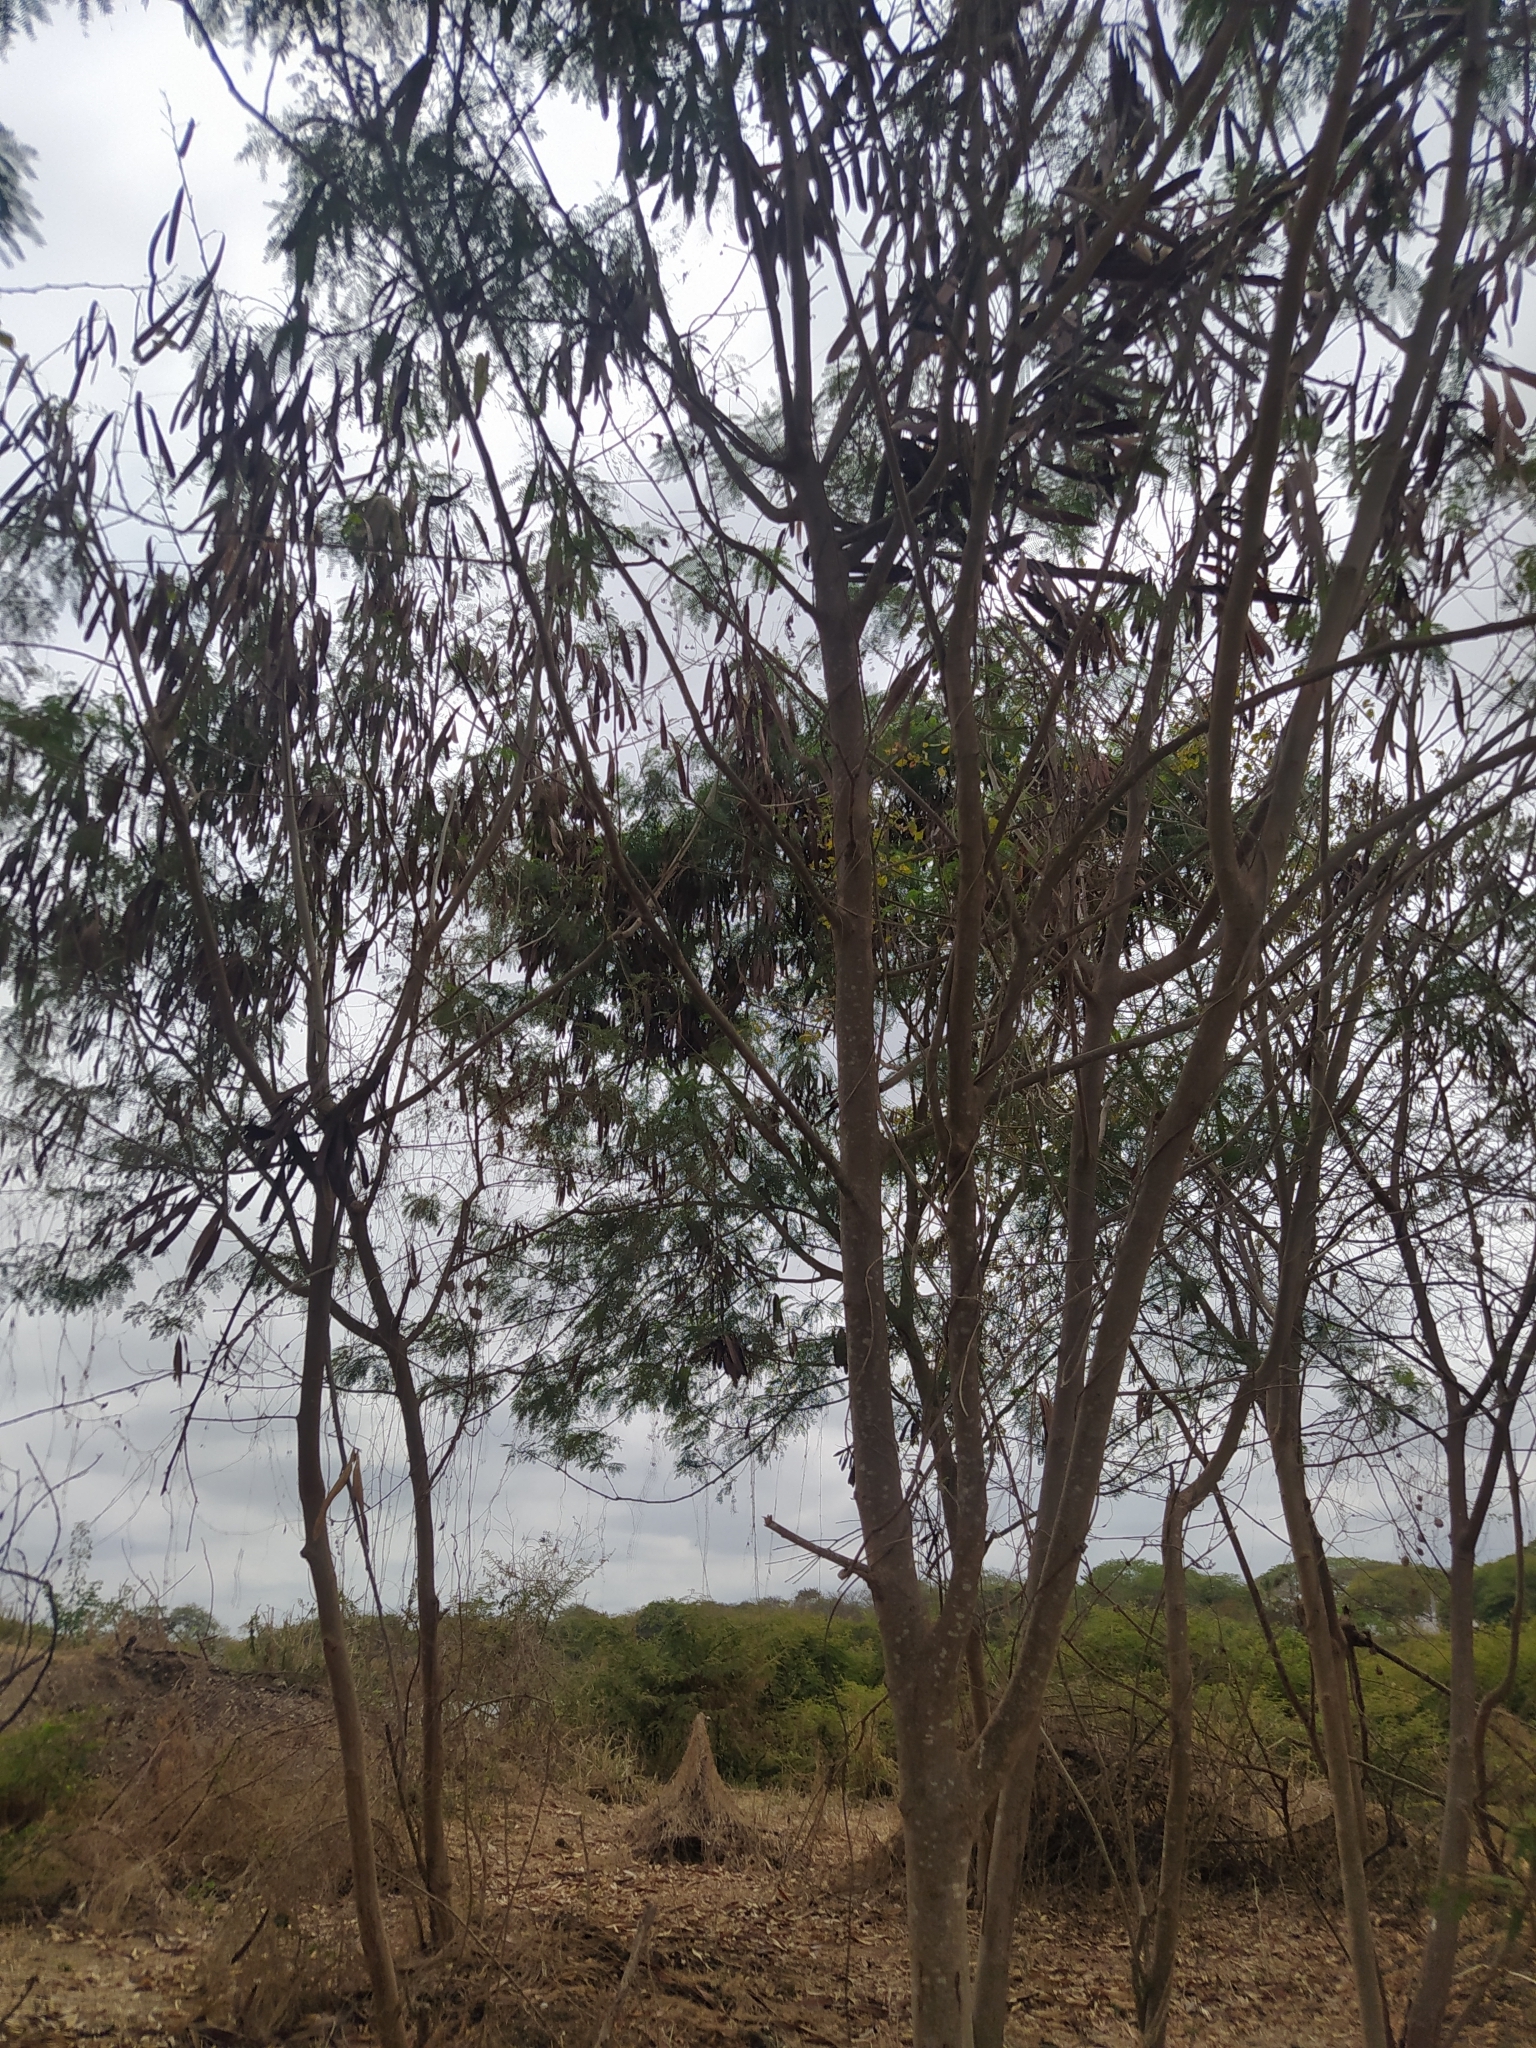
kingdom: Plantae
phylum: Tracheophyta
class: Magnoliopsida
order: Fabales
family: Fabaceae
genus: Leucaena
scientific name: Leucaena leucocephala
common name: White leadtree
